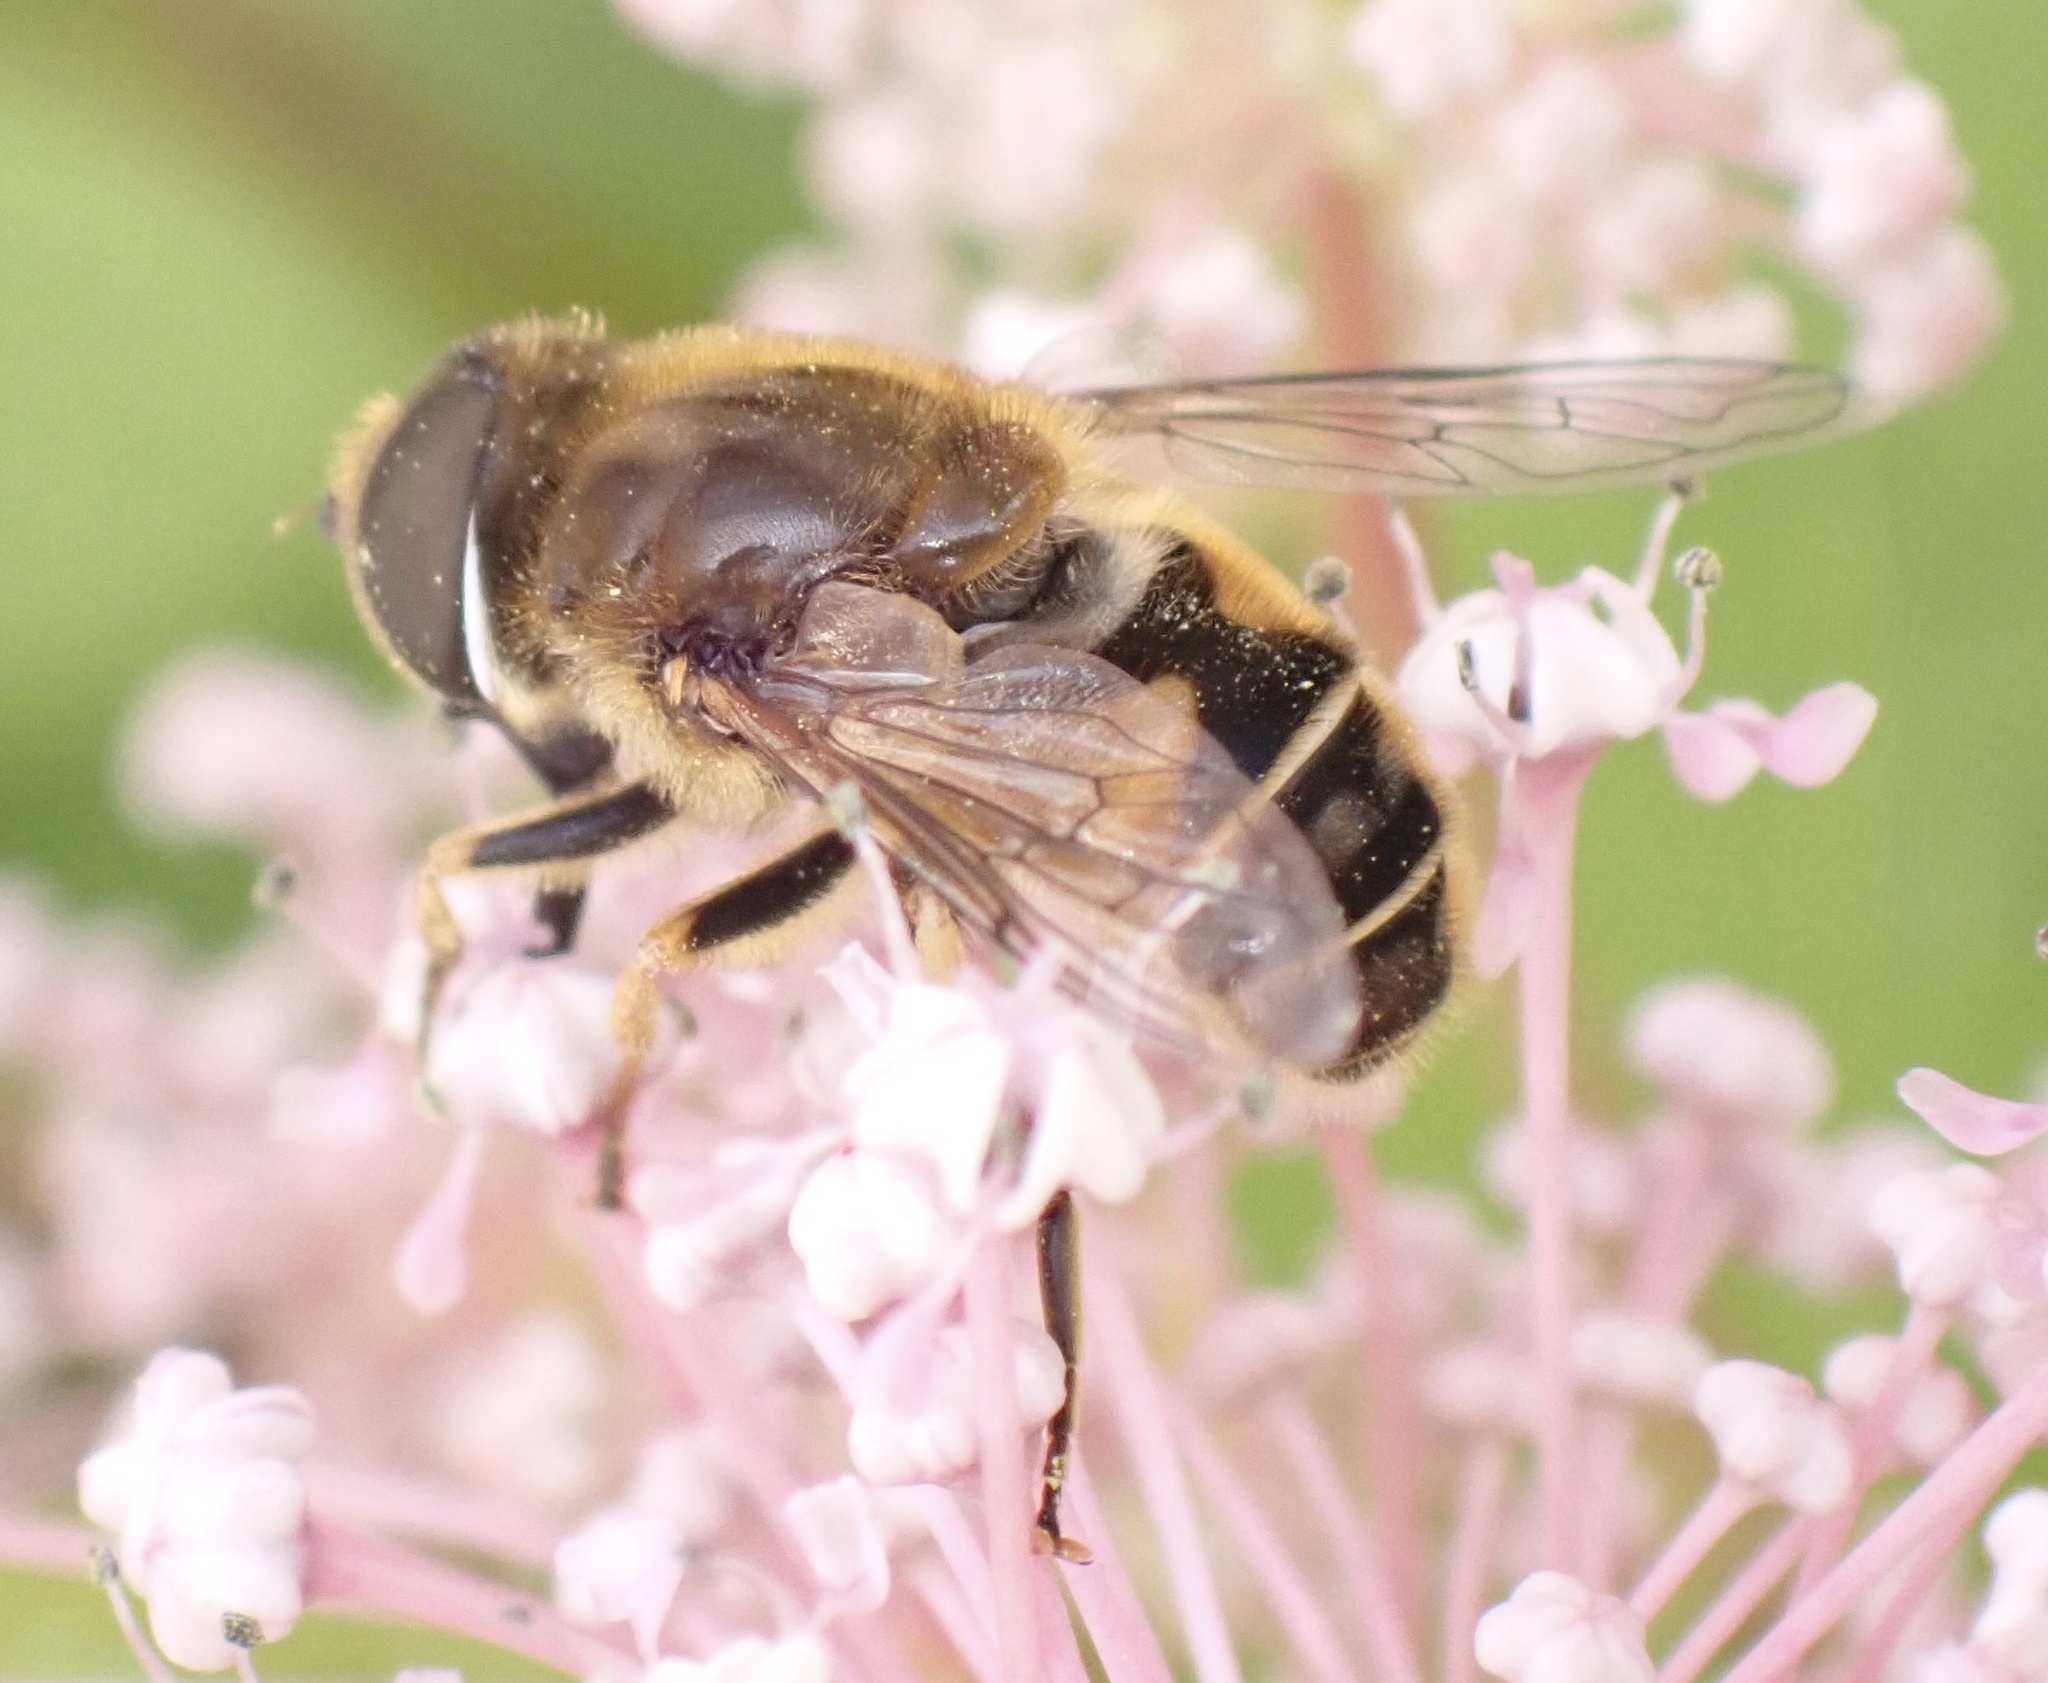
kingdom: Animalia
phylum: Arthropoda
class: Insecta
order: Diptera
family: Syrphidae
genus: Eristalis
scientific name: Eristalis nemorum
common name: Orange-spined drone fly
